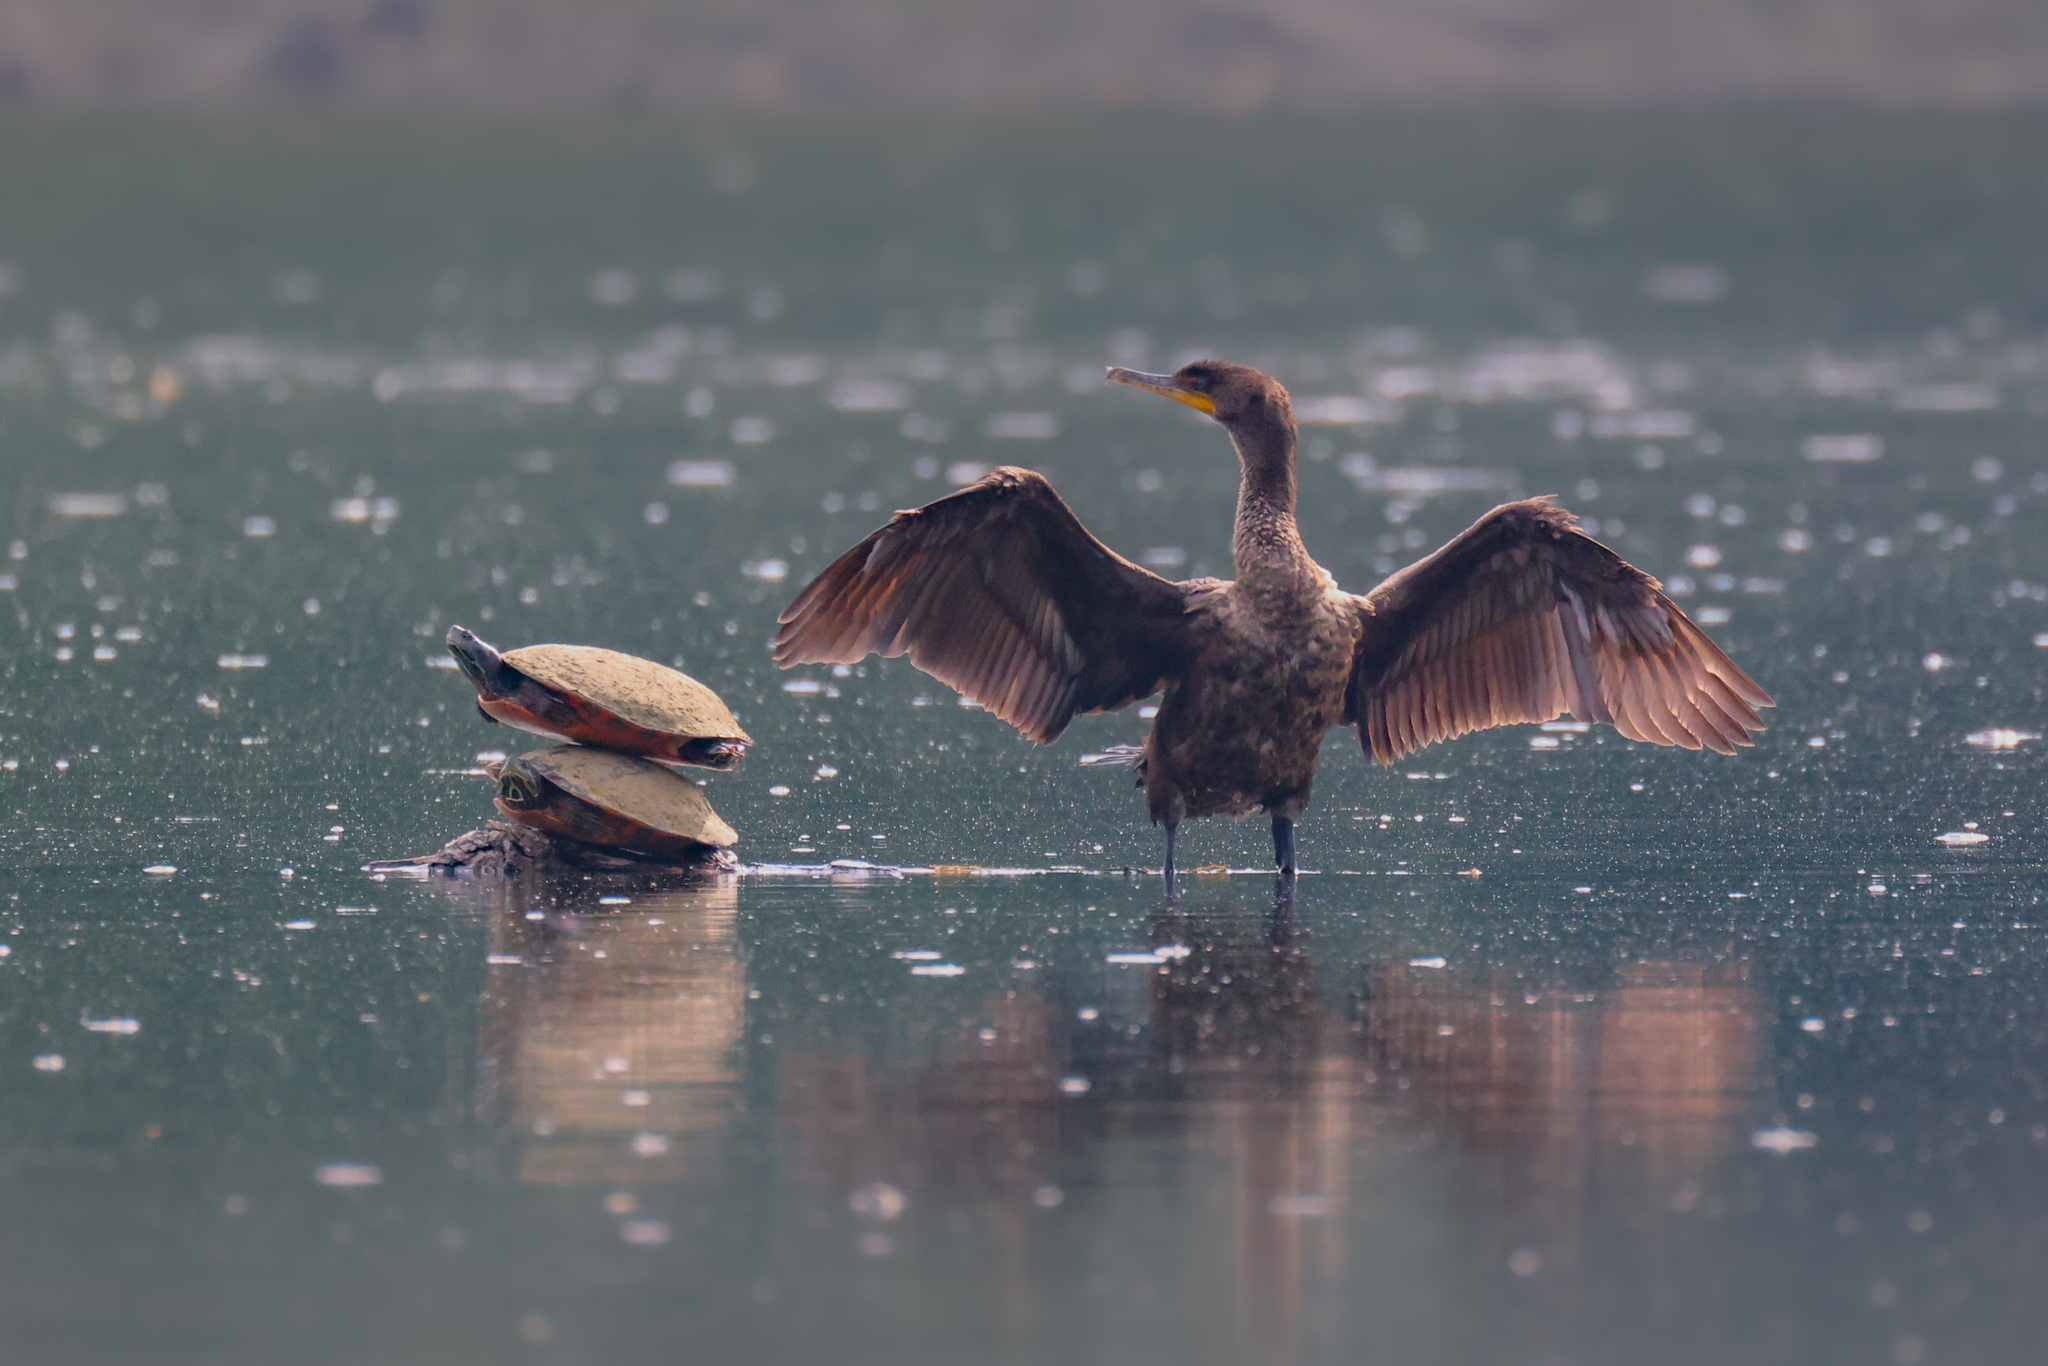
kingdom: Animalia
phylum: Chordata
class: Testudines
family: Emydidae
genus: Pseudemys
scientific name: Pseudemys rubriventris
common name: American red-bellied turtle
